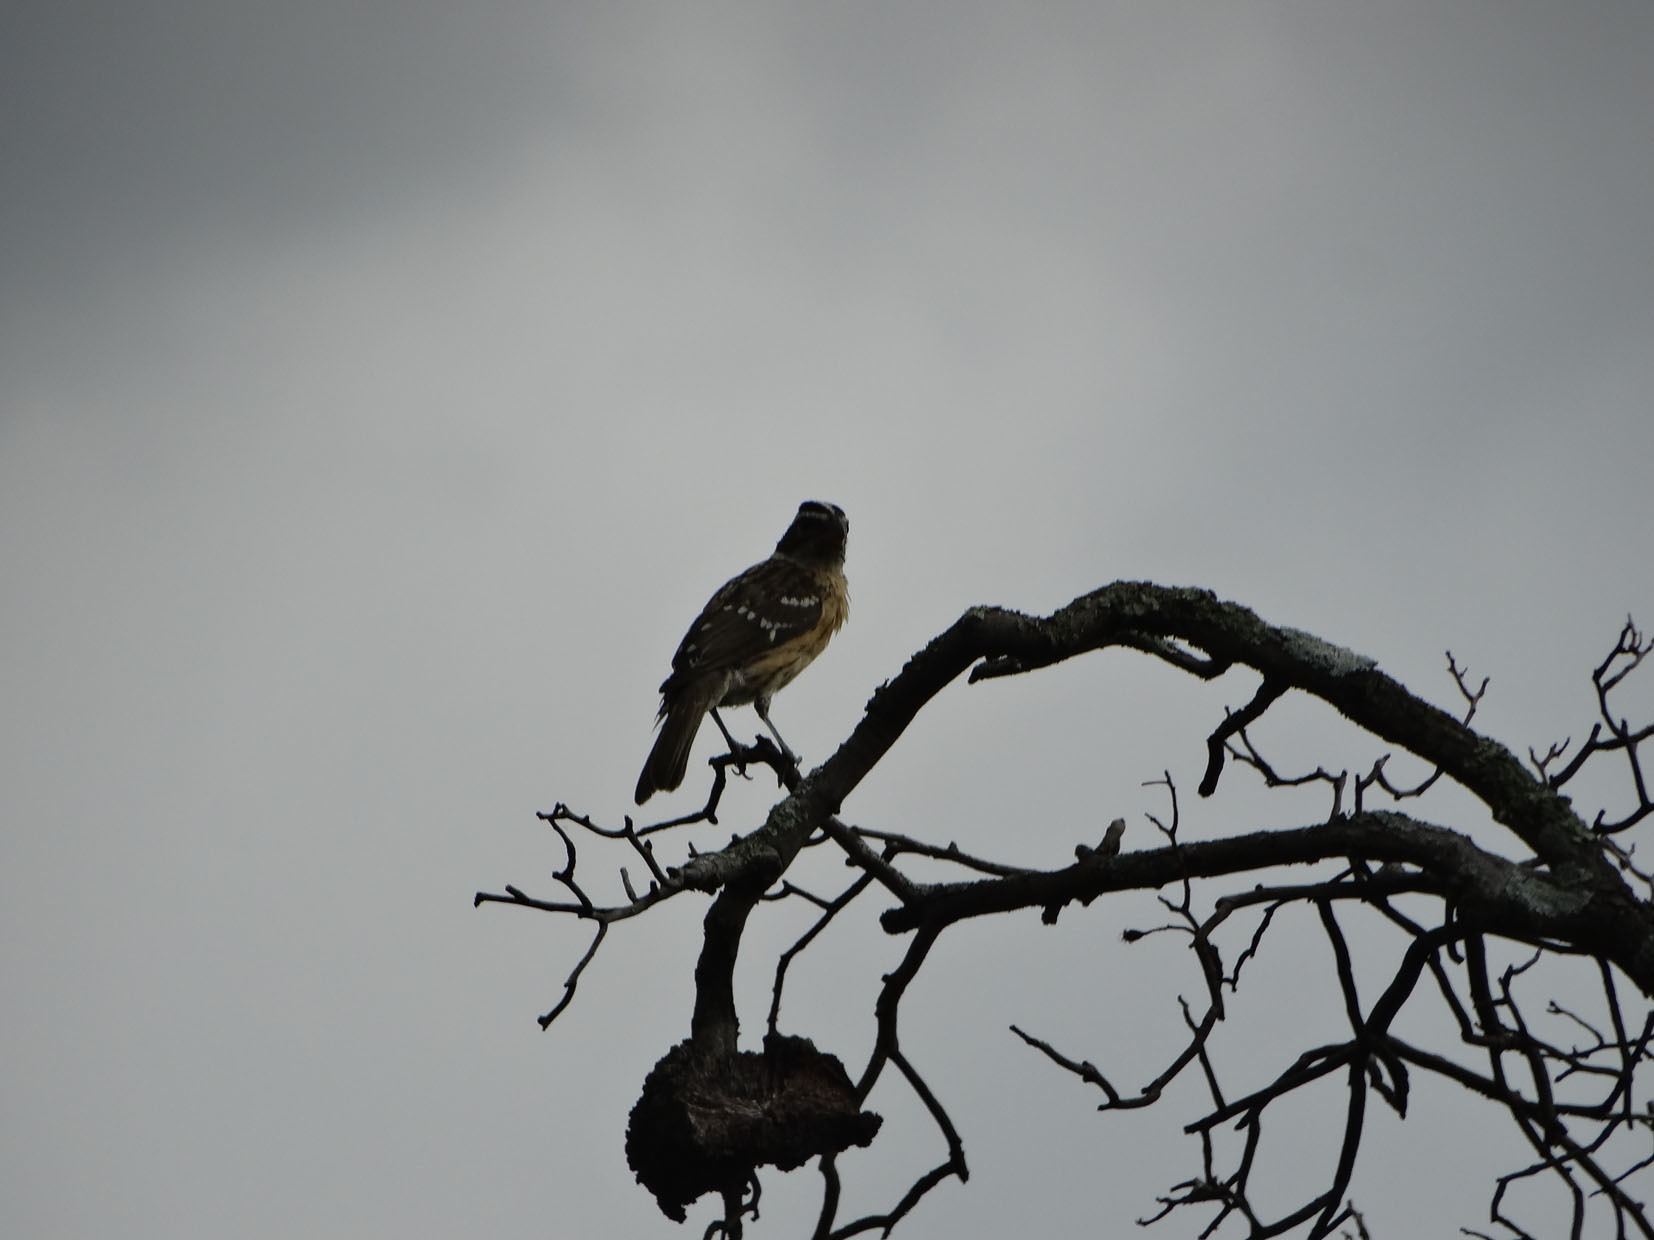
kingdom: Animalia
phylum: Chordata
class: Aves
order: Passeriformes
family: Cardinalidae
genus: Pheucticus
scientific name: Pheucticus melanocephalus
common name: Black-headed grosbeak
